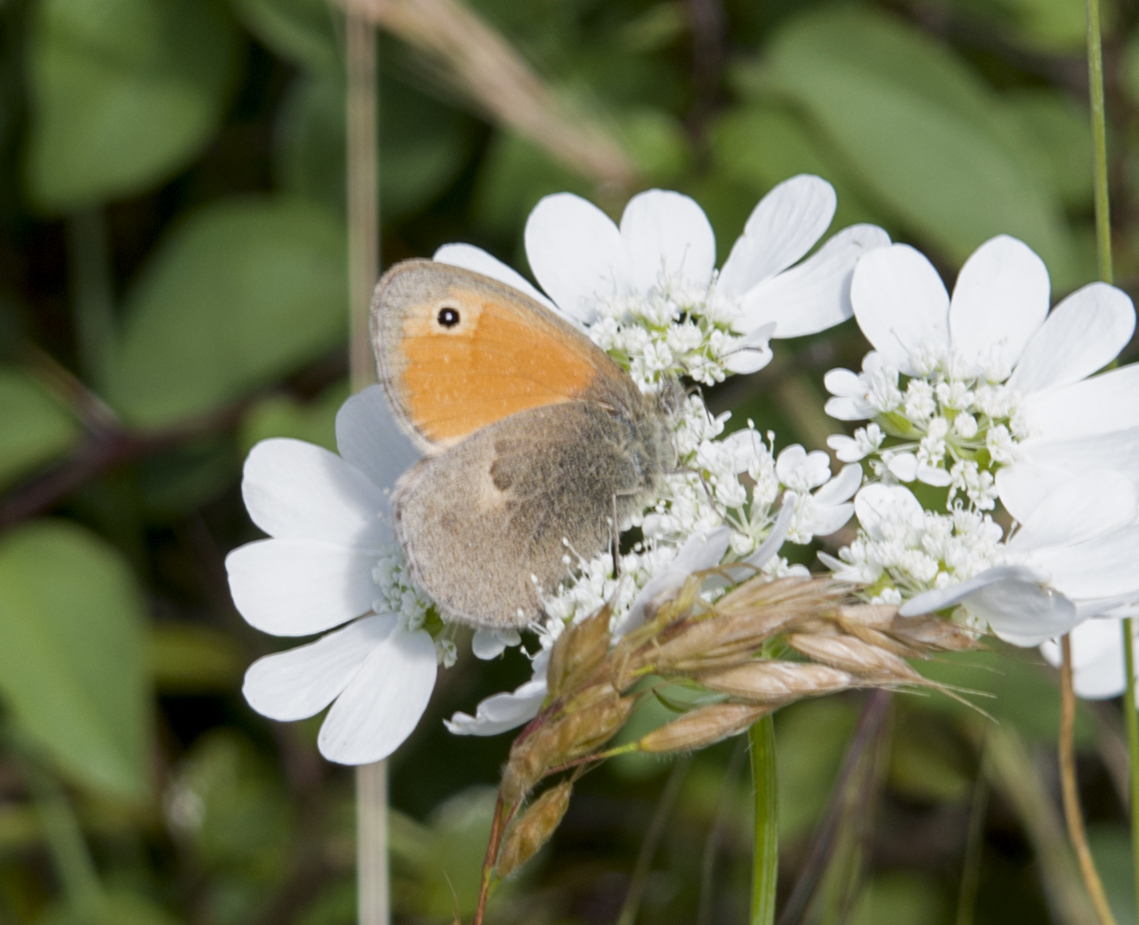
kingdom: Animalia
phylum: Arthropoda
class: Insecta
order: Lepidoptera
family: Nymphalidae
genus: Coenonympha
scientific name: Coenonympha pamphilus
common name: Small heath
